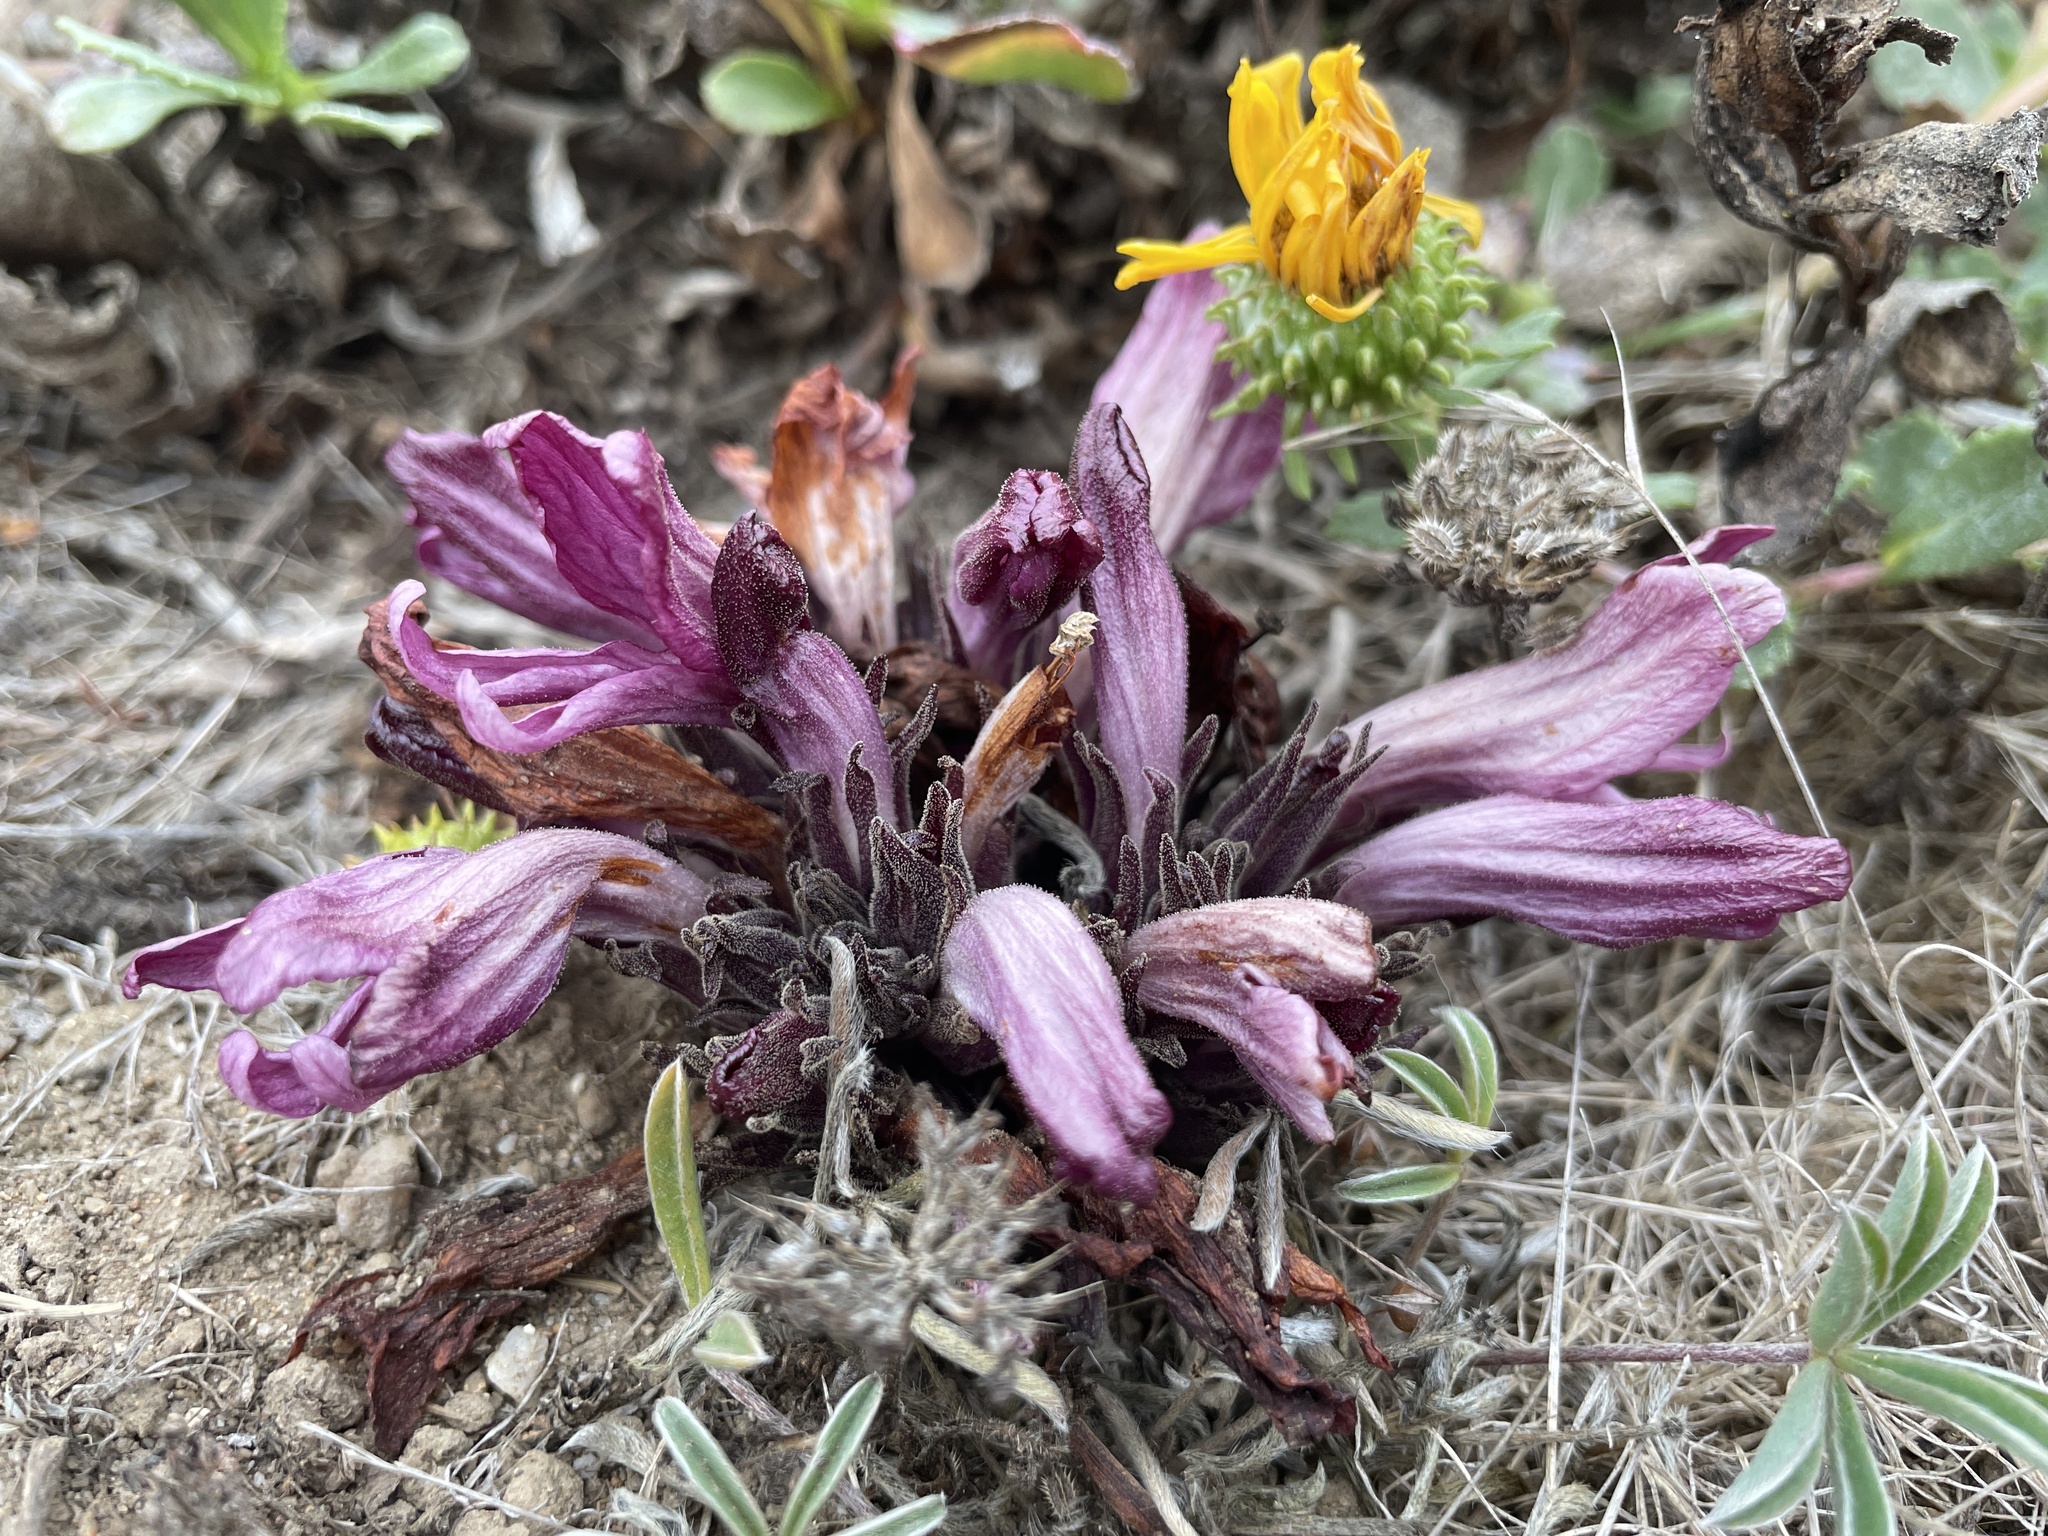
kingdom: Plantae
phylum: Tracheophyta
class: Magnoliopsida
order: Lamiales
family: Orobanchaceae
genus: Aphyllon
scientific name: Aphyllon californicum
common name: California broomrape
